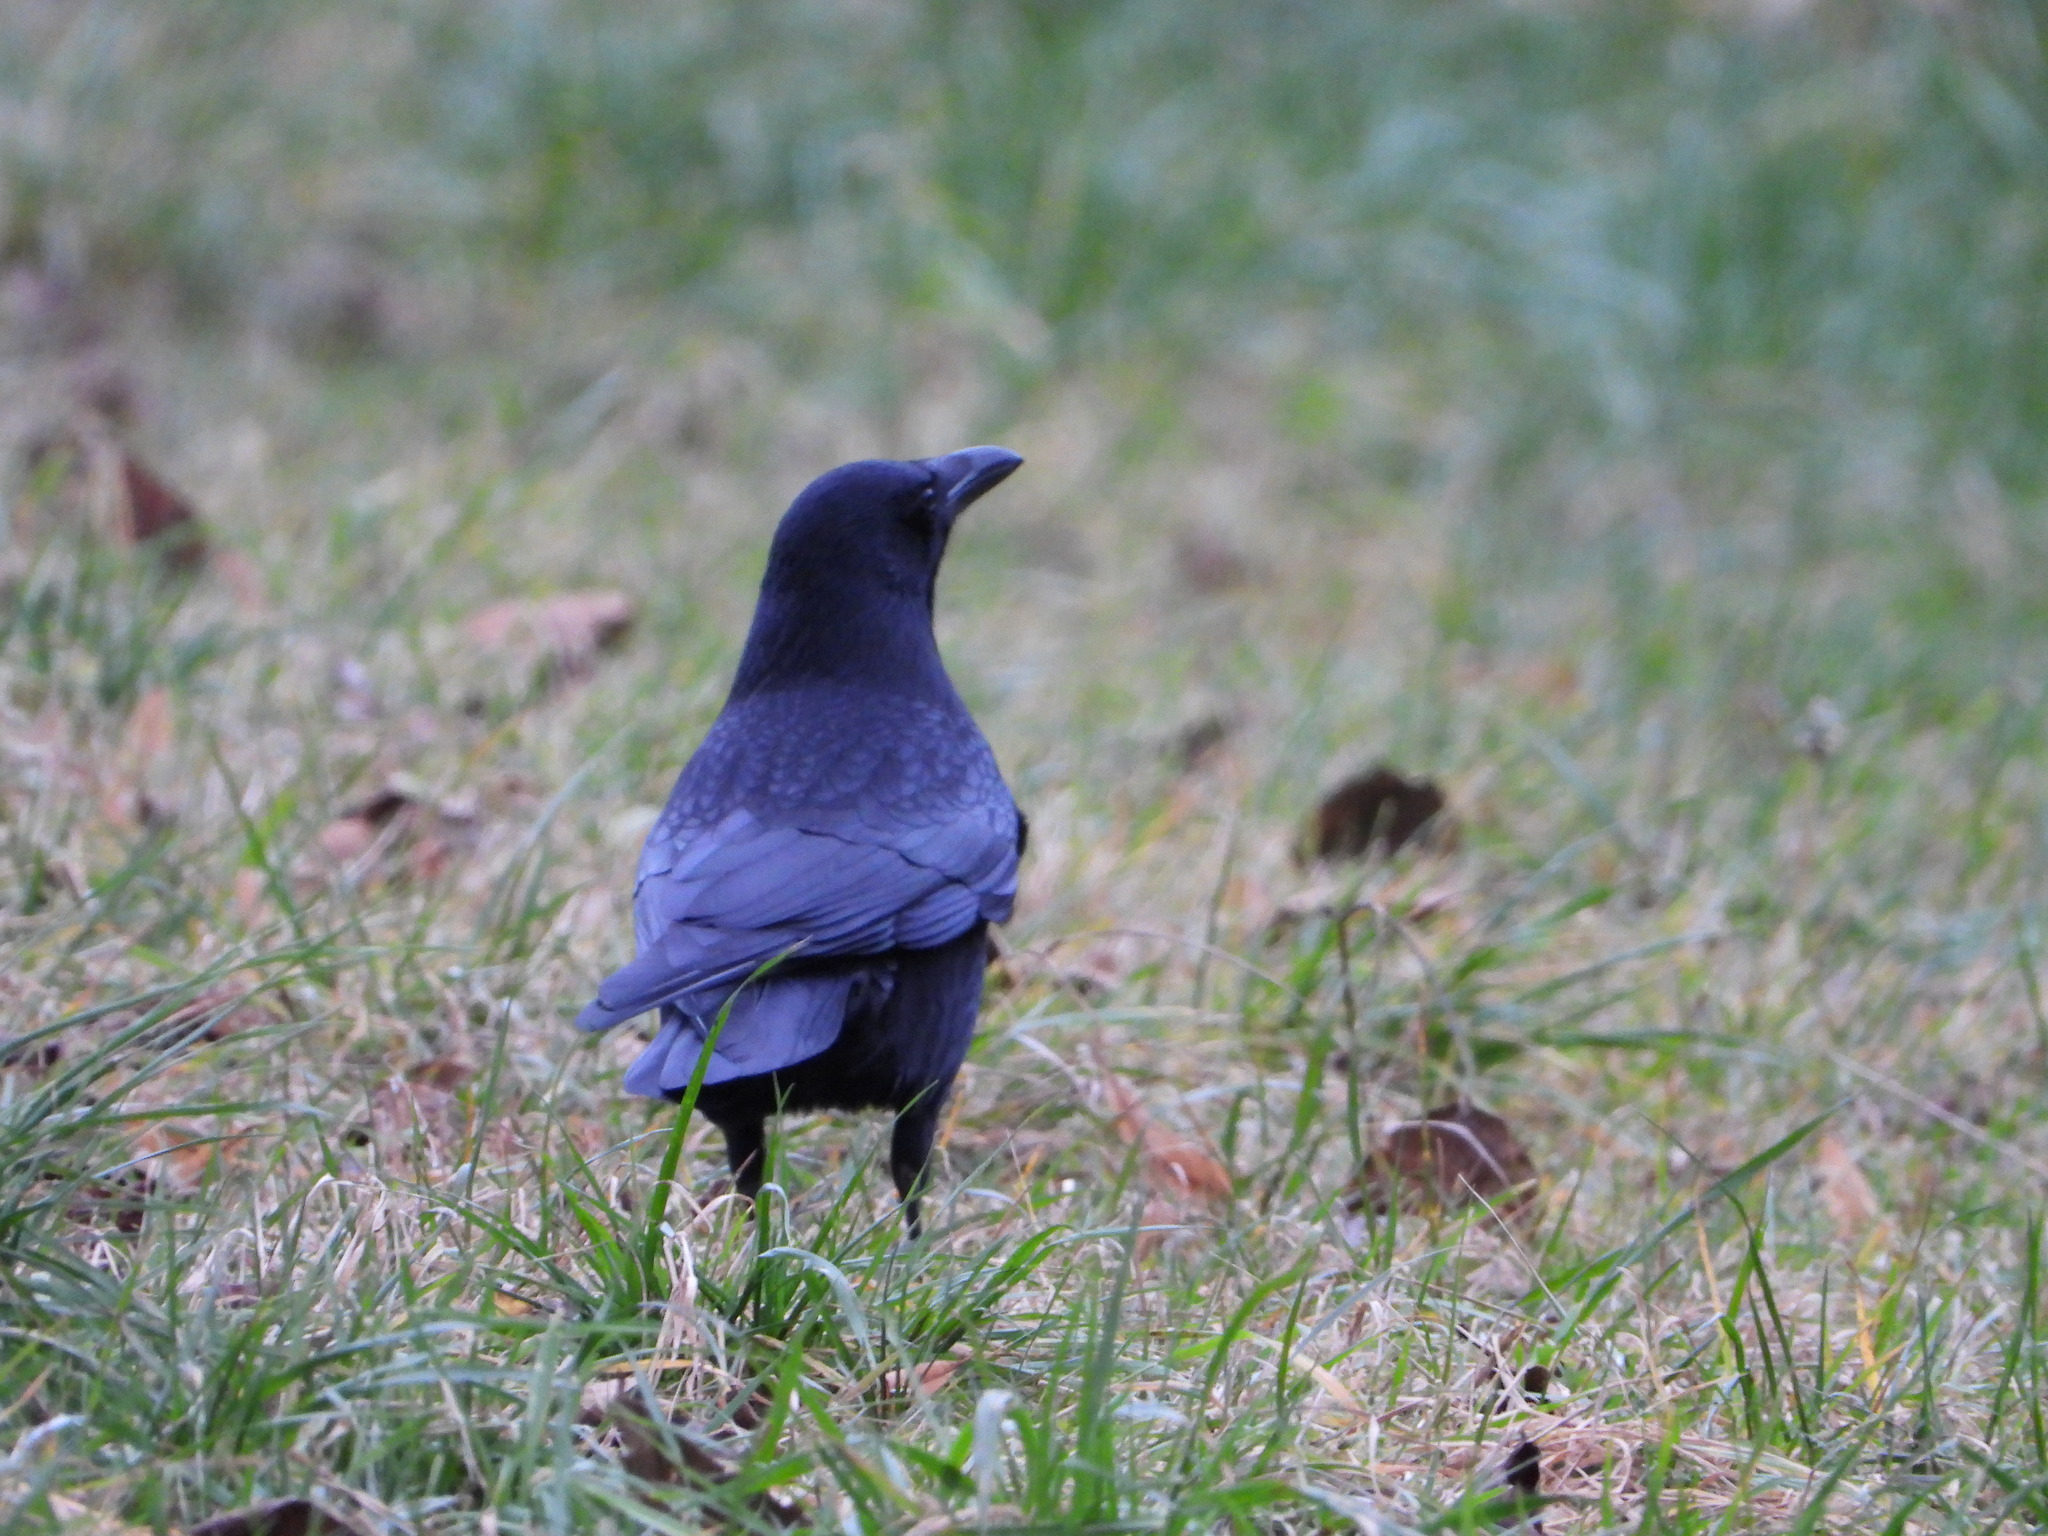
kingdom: Animalia
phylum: Chordata
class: Aves
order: Passeriformes
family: Corvidae
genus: Corvus
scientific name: Corvus corone
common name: Carrion crow
